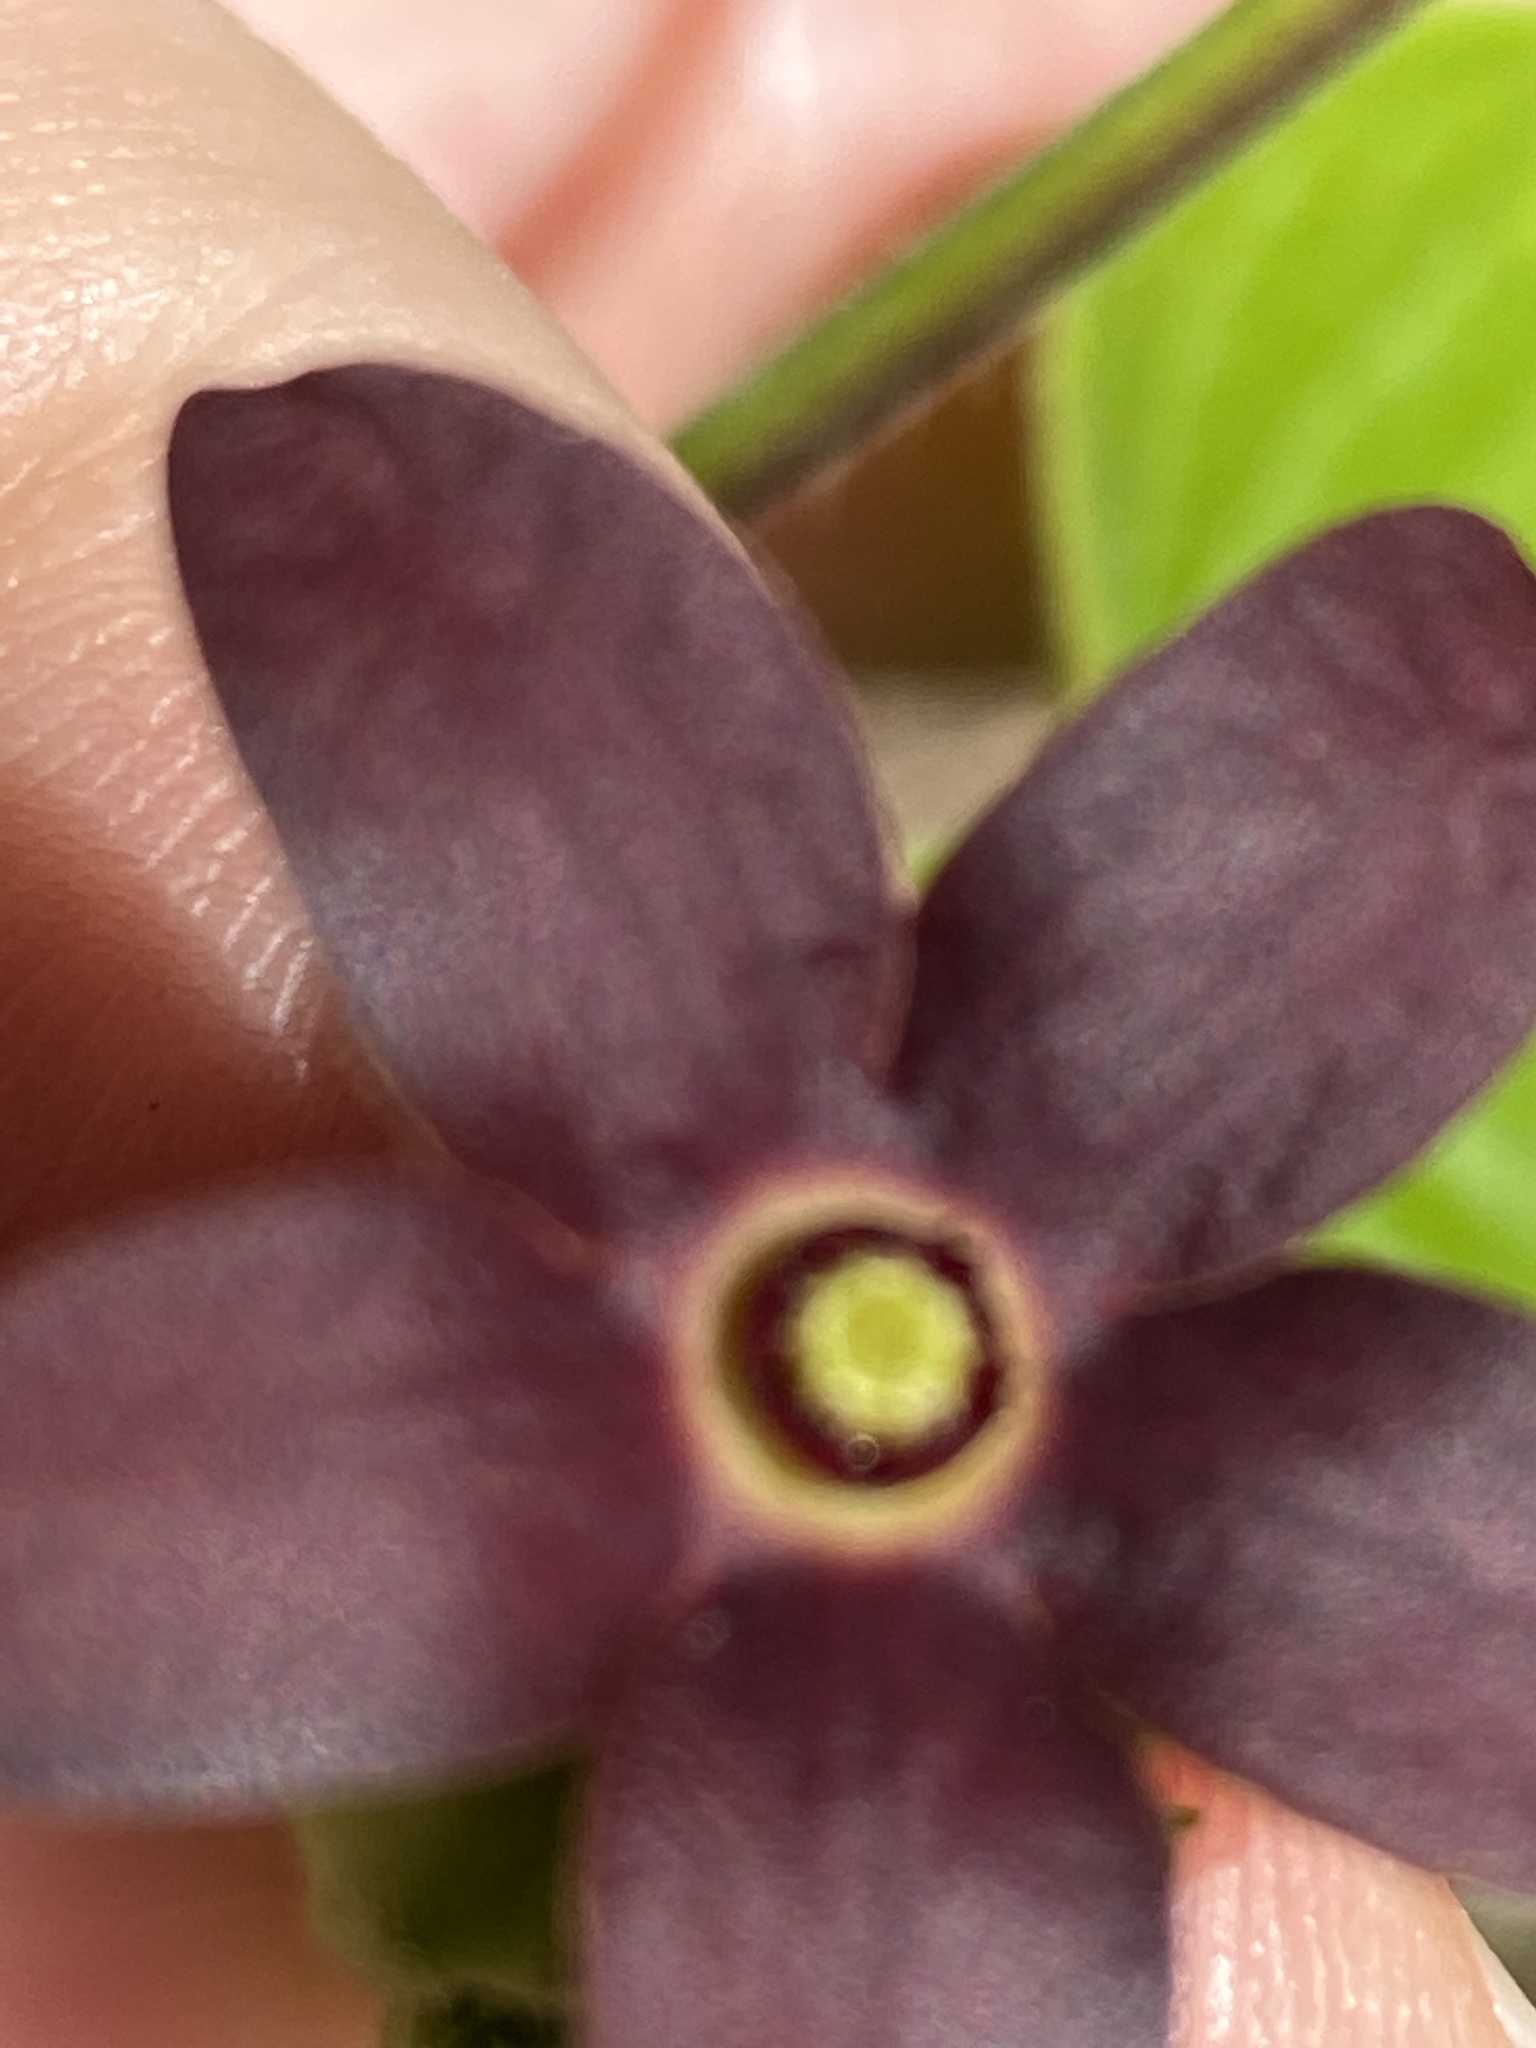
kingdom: Plantae
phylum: Tracheophyta
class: Magnoliopsida
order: Gentianales
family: Apocynaceae
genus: Matelea
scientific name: Matelea carolinensis
